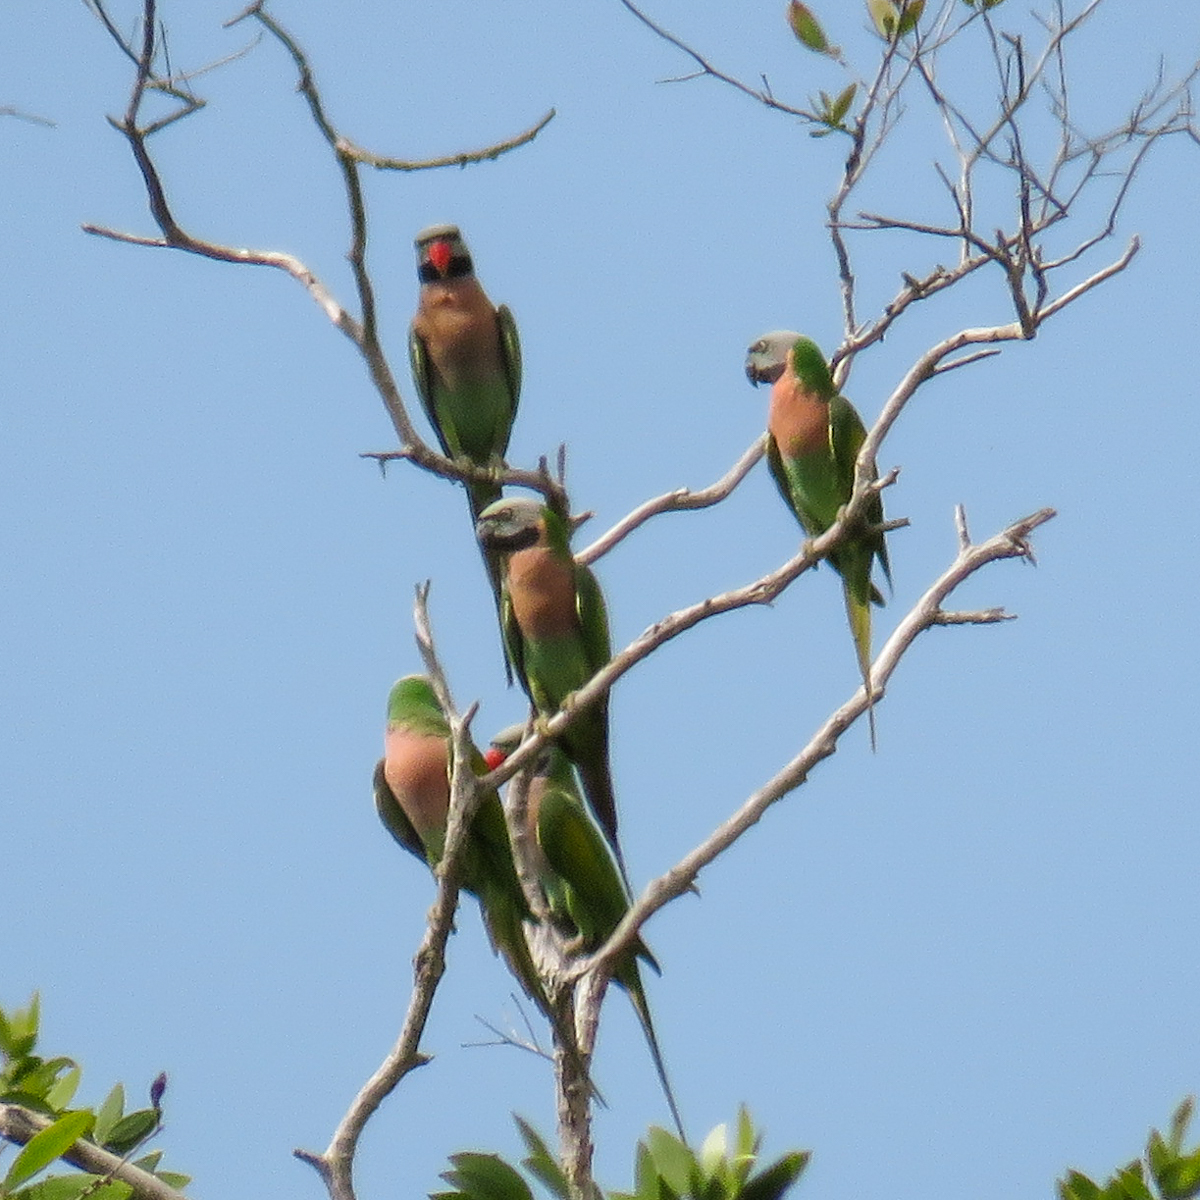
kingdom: Animalia
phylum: Chordata
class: Aves
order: Psittaciformes
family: Psittacidae
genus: Psittacula
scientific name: Psittacula alexandri
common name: Red-breasted parakeet
